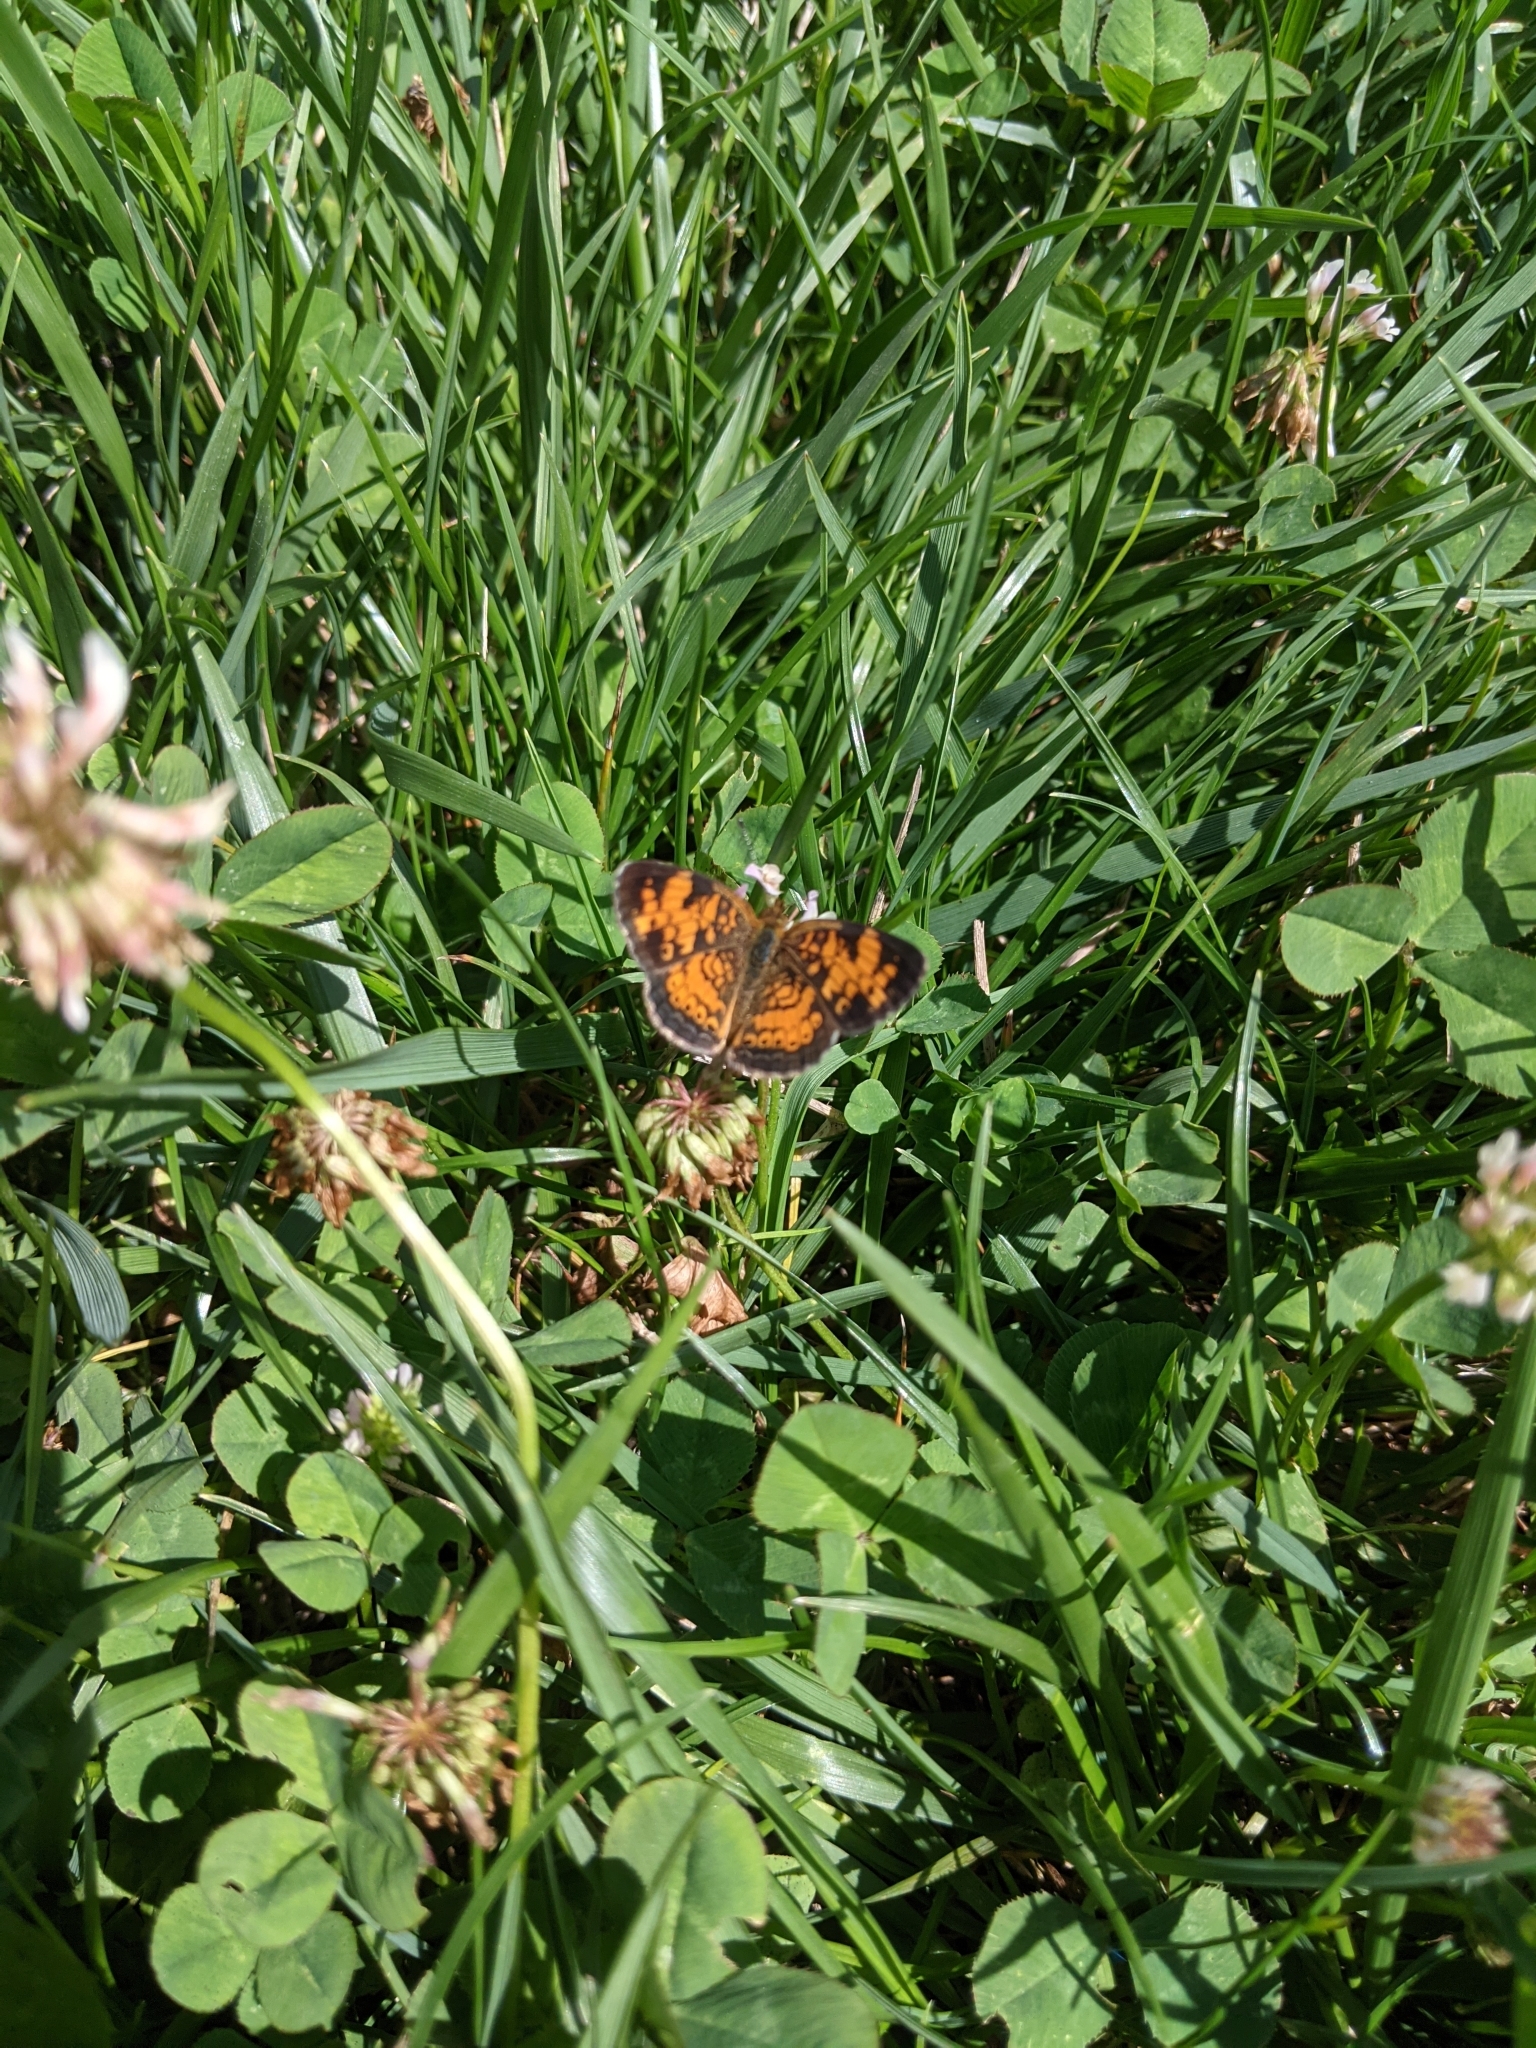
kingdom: Animalia
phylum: Arthropoda
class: Insecta
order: Lepidoptera
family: Nymphalidae
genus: Phyciodes
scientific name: Phyciodes tharos
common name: Pearl crescent
